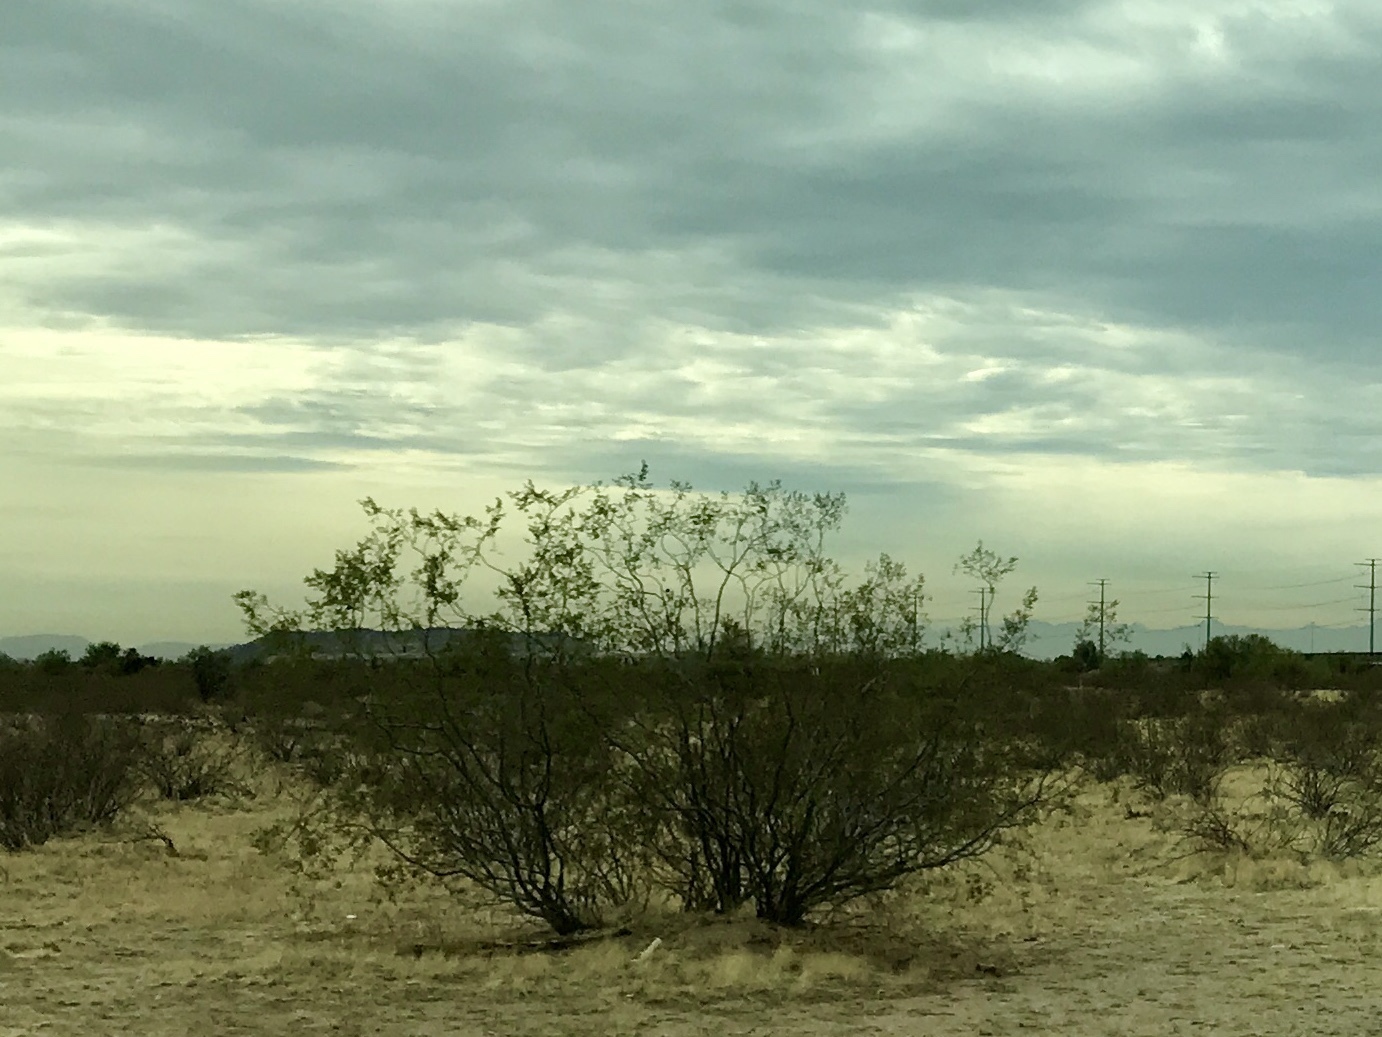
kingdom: Plantae
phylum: Tracheophyta
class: Magnoliopsida
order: Zygophyllales
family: Zygophyllaceae
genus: Larrea
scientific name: Larrea tridentata
